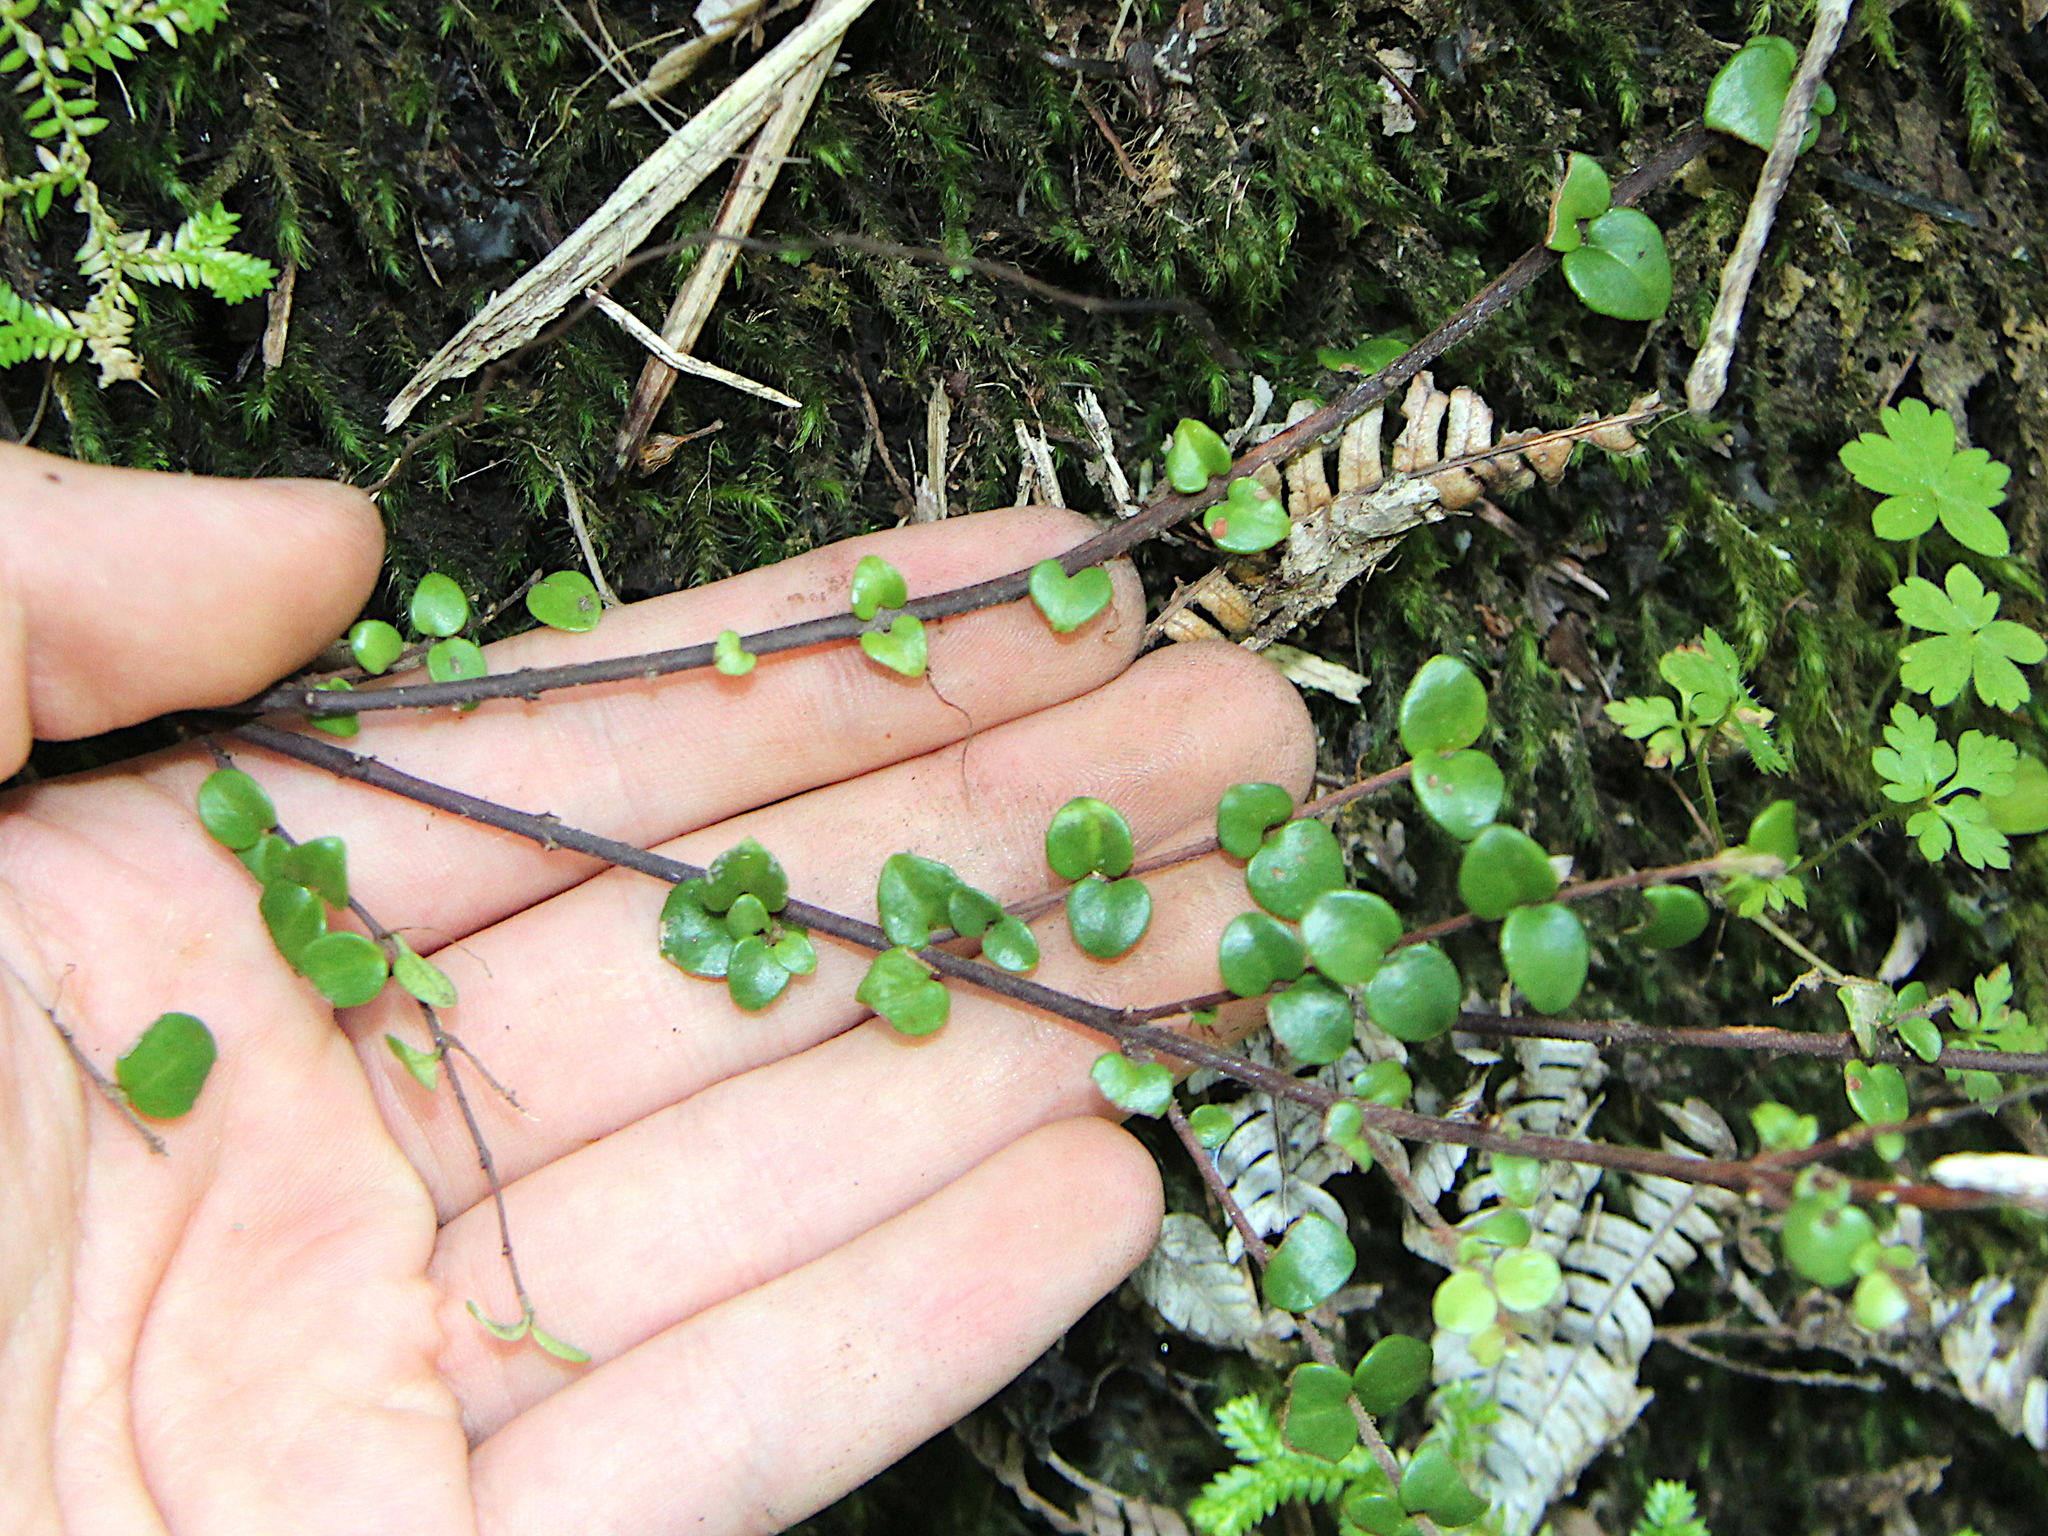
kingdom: Plantae
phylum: Tracheophyta
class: Magnoliopsida
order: Myrtales
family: Myrtaceae
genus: Metrosideros
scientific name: Metrosideros perforata
